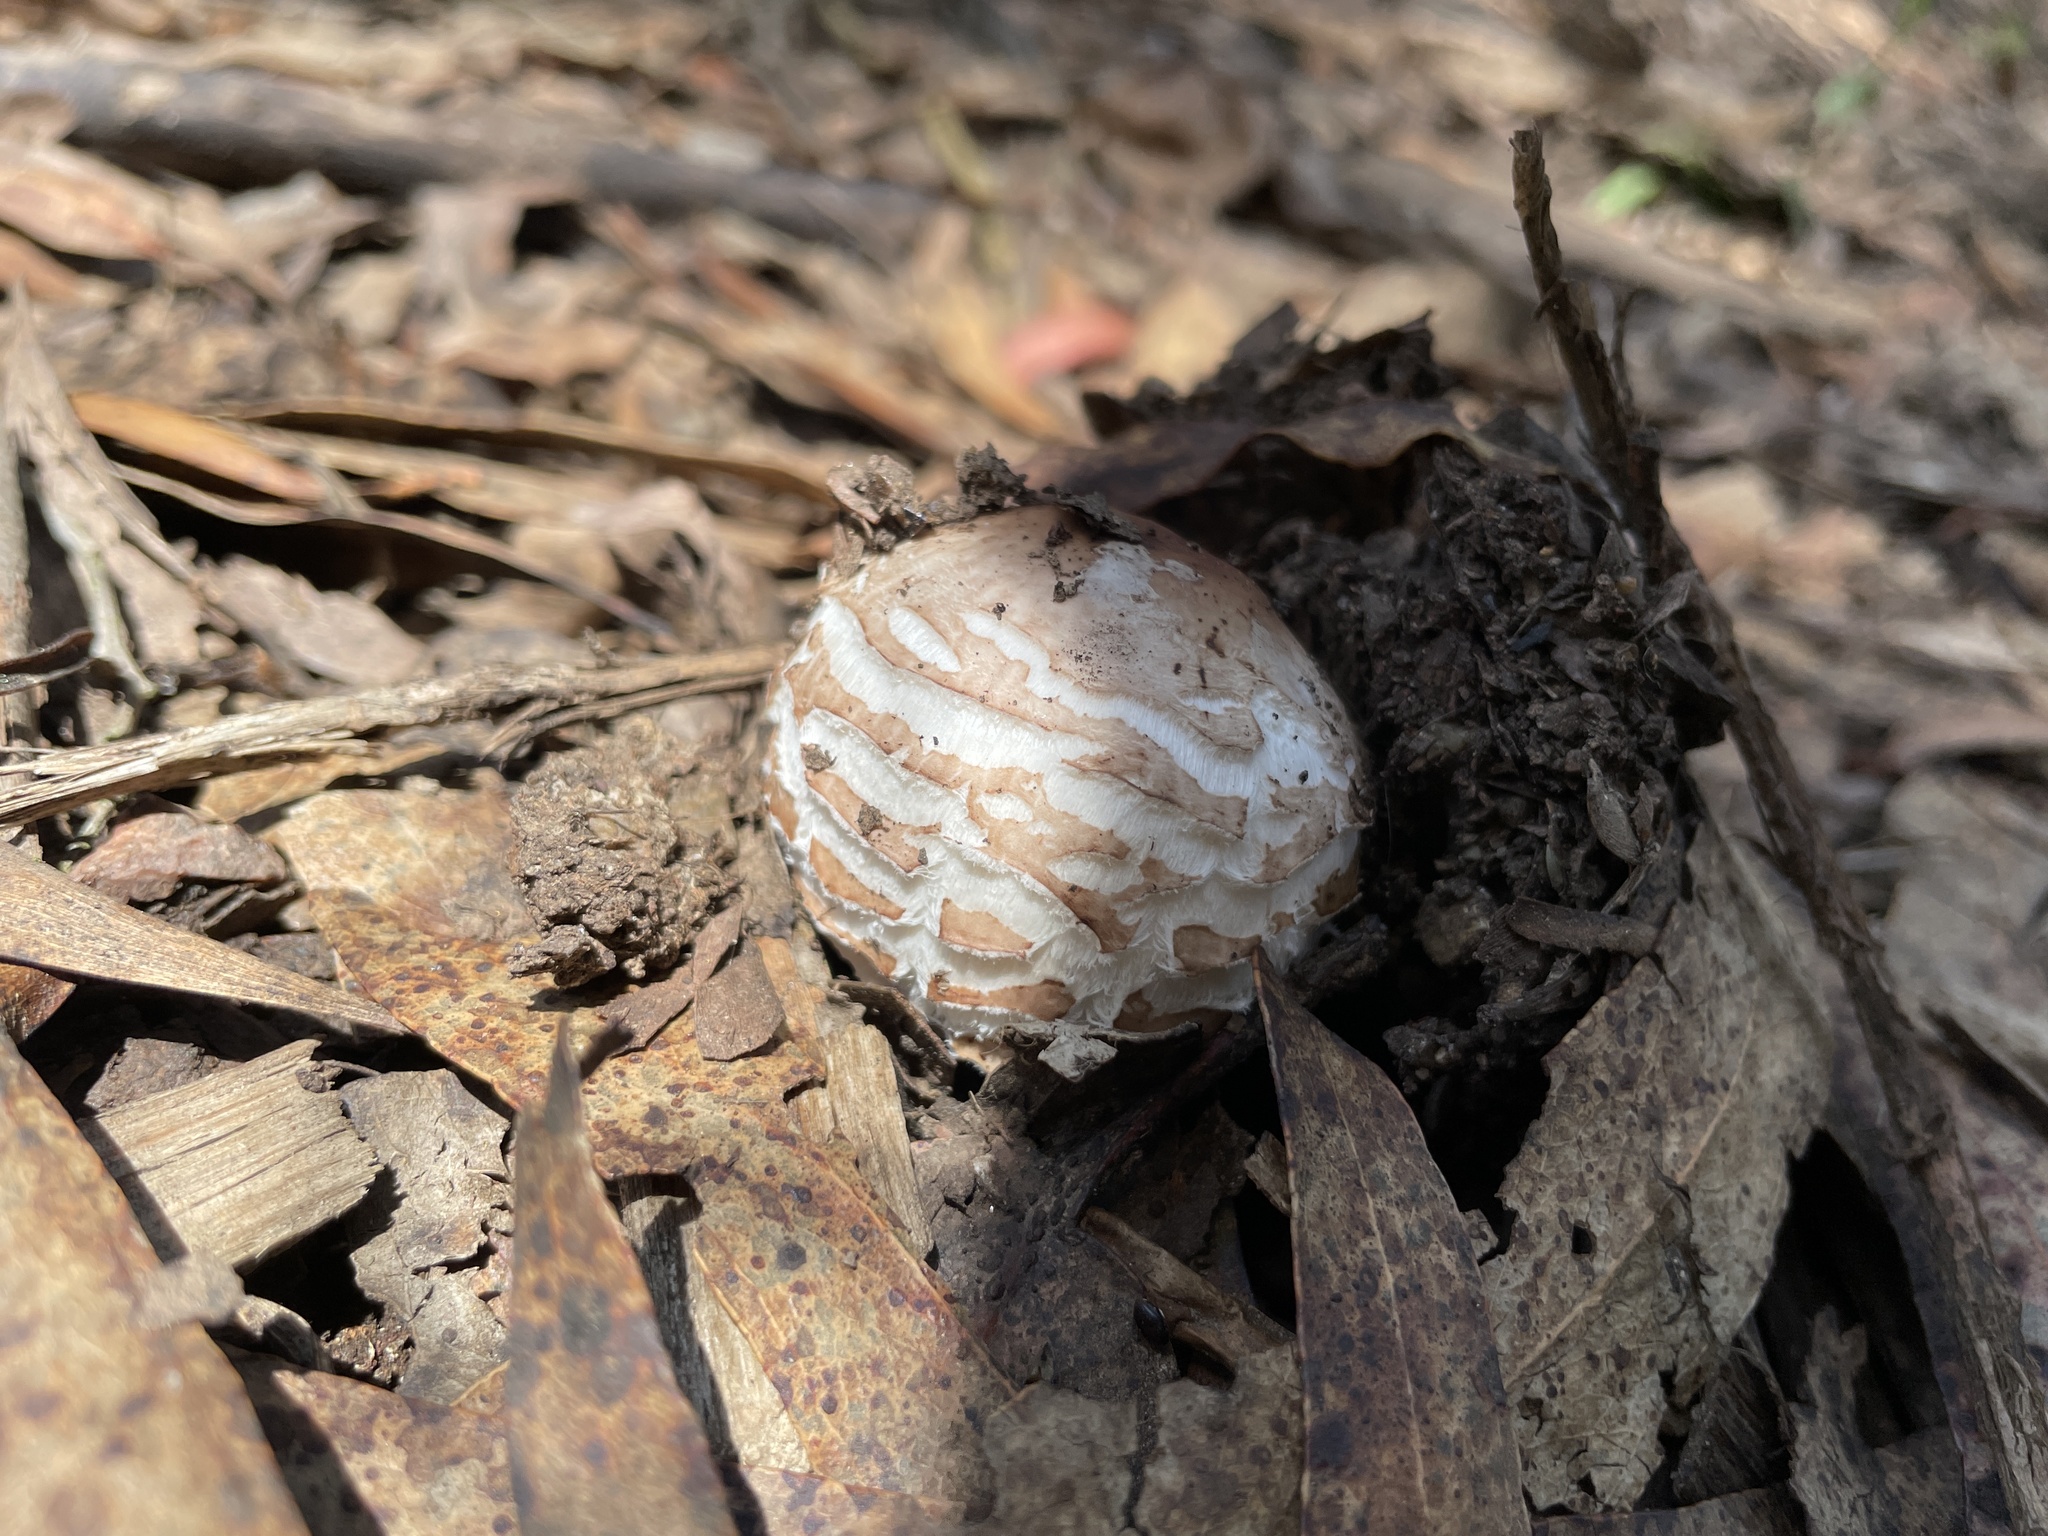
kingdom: Fungi
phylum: Basidiomycota
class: Agaricomycetes
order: Agaricales
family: Agaricaceae
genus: Chlorophyllum
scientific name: Chlorophyllum brunneum
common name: Brown parasol
